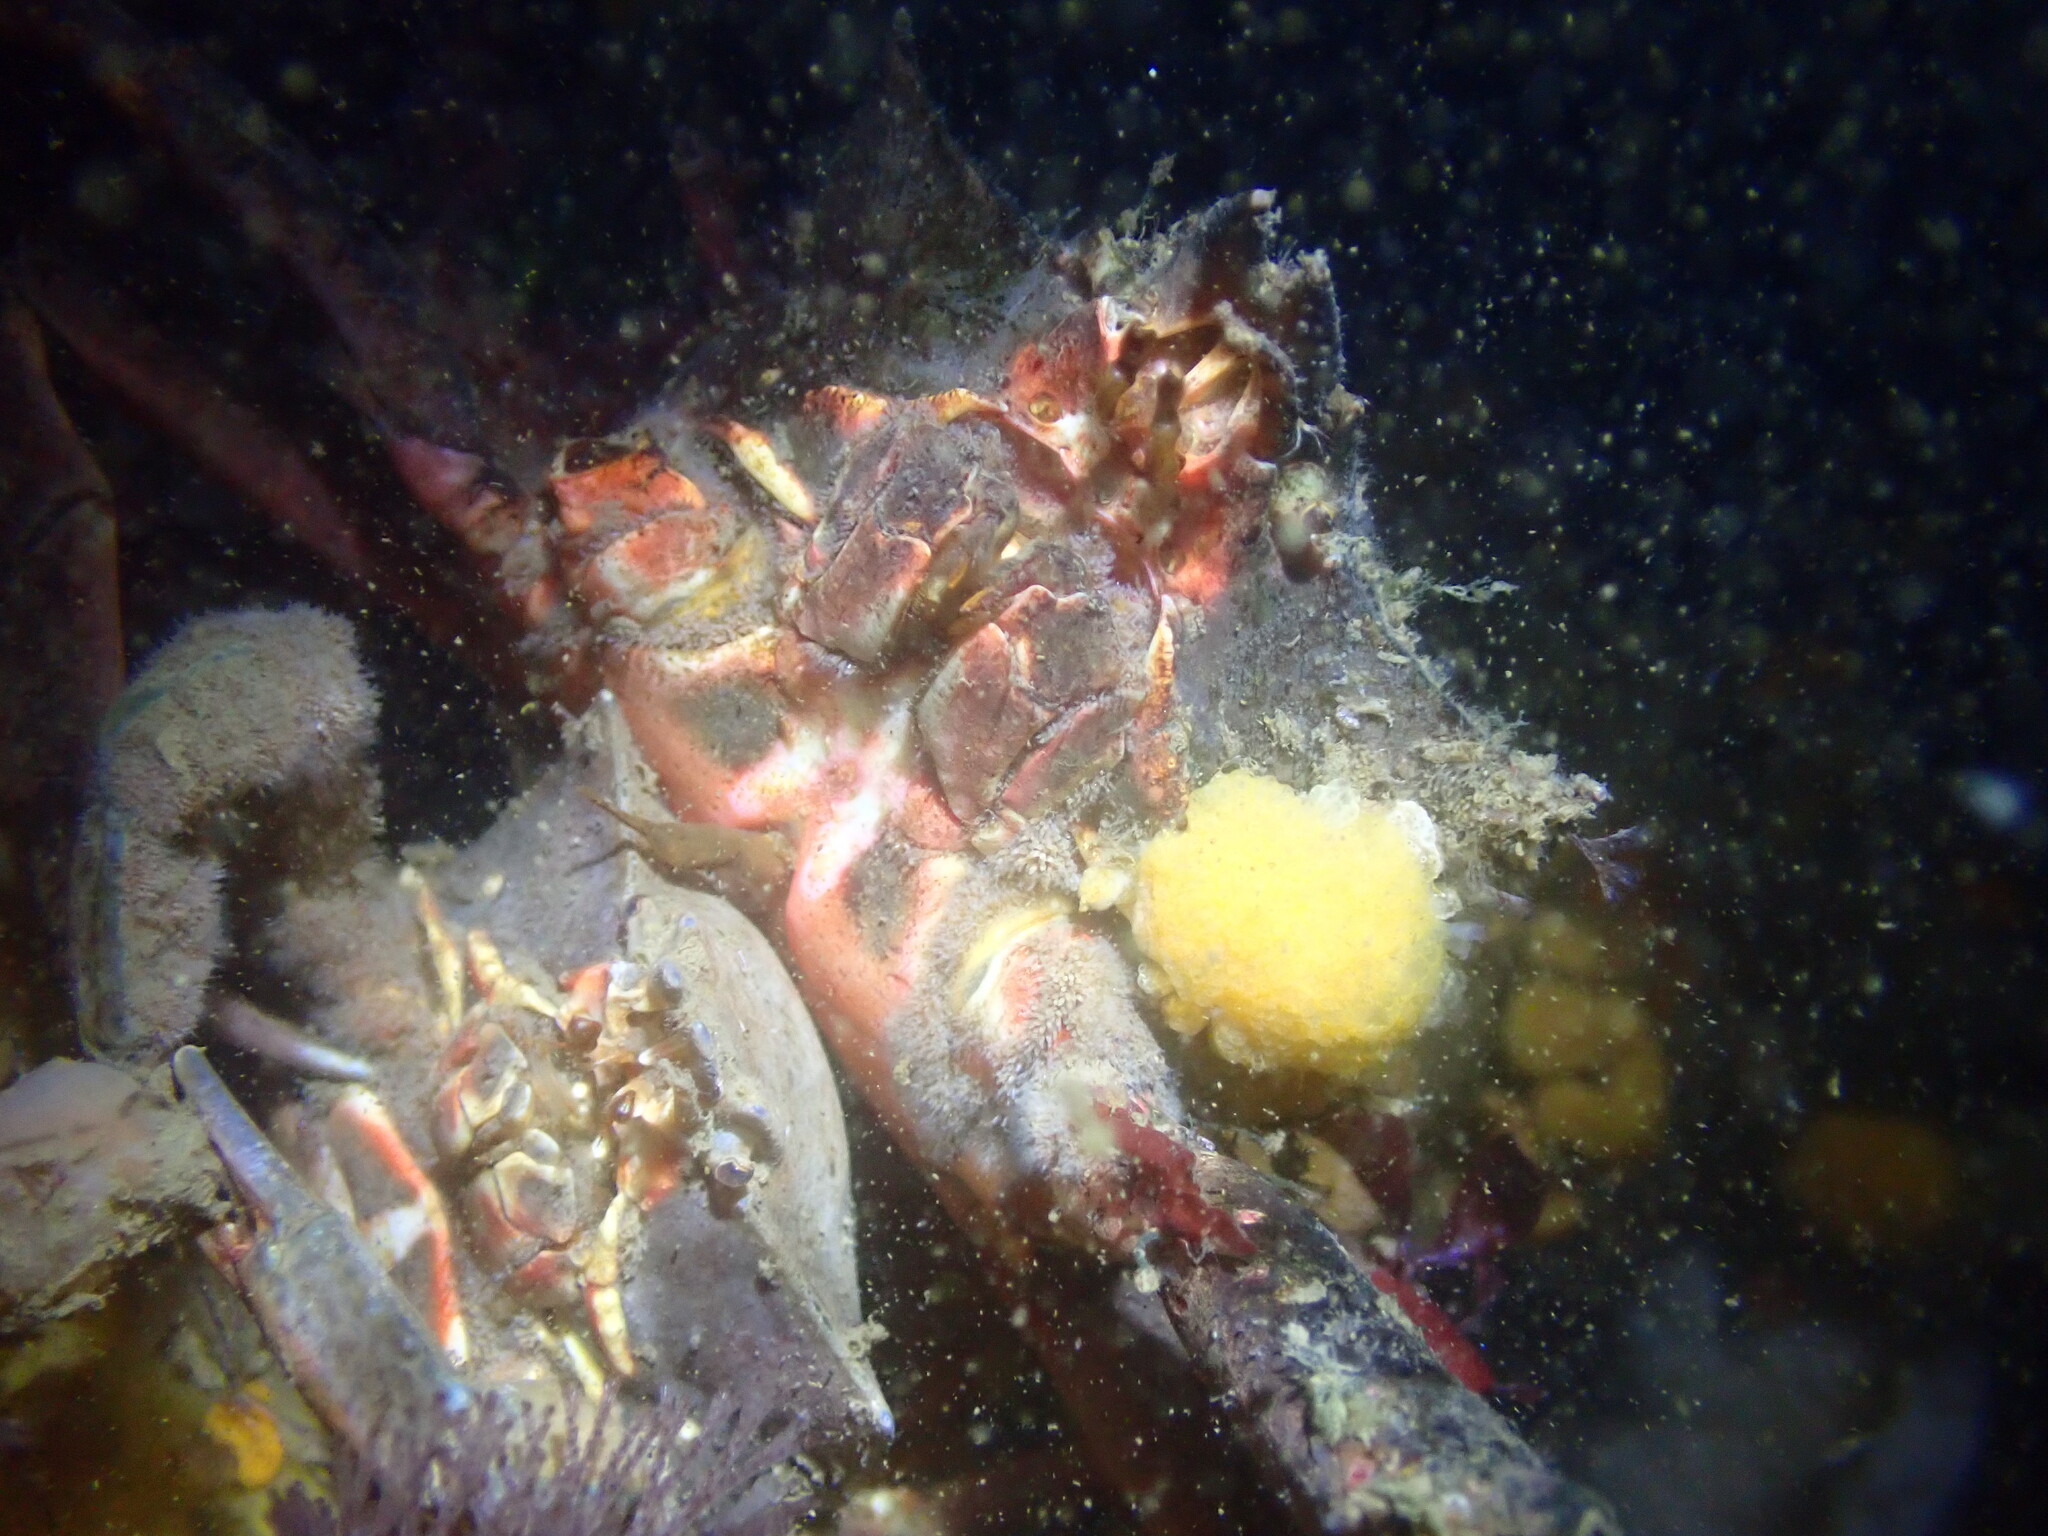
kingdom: Animalia
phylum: Arthropoda
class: Malacostraca
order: Decapoda
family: Epialtidae
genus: Pugettia
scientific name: Pugettia producta
